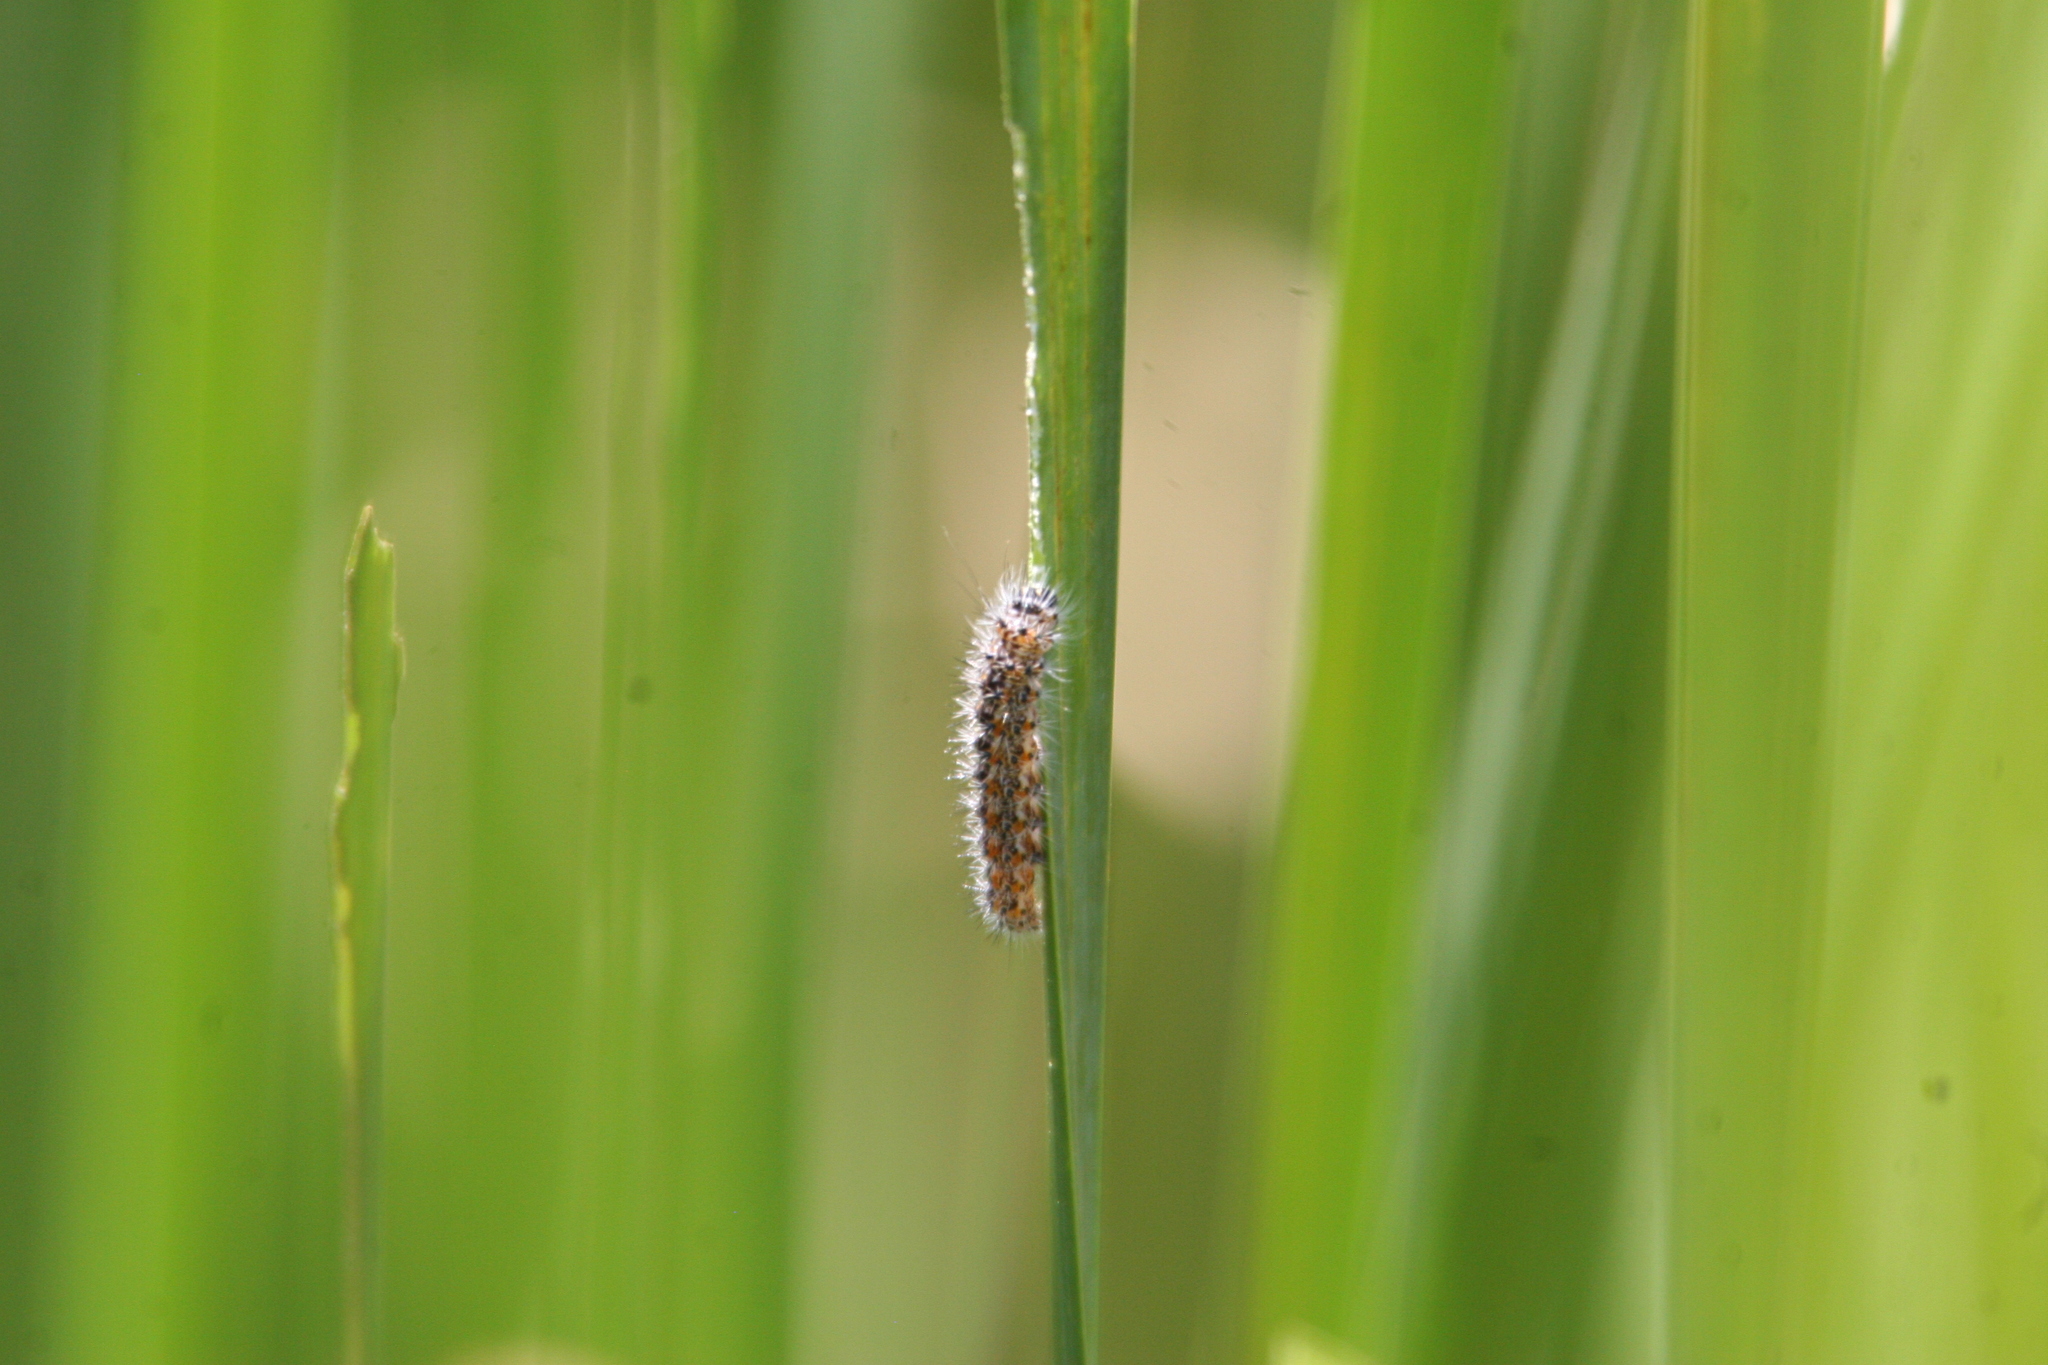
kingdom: Animalia
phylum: Arthropoda
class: Insecta
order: Lepidoptera
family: Noctuidae
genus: Acronicta
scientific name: Acronicta insularis
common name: Henry's marsh moth
